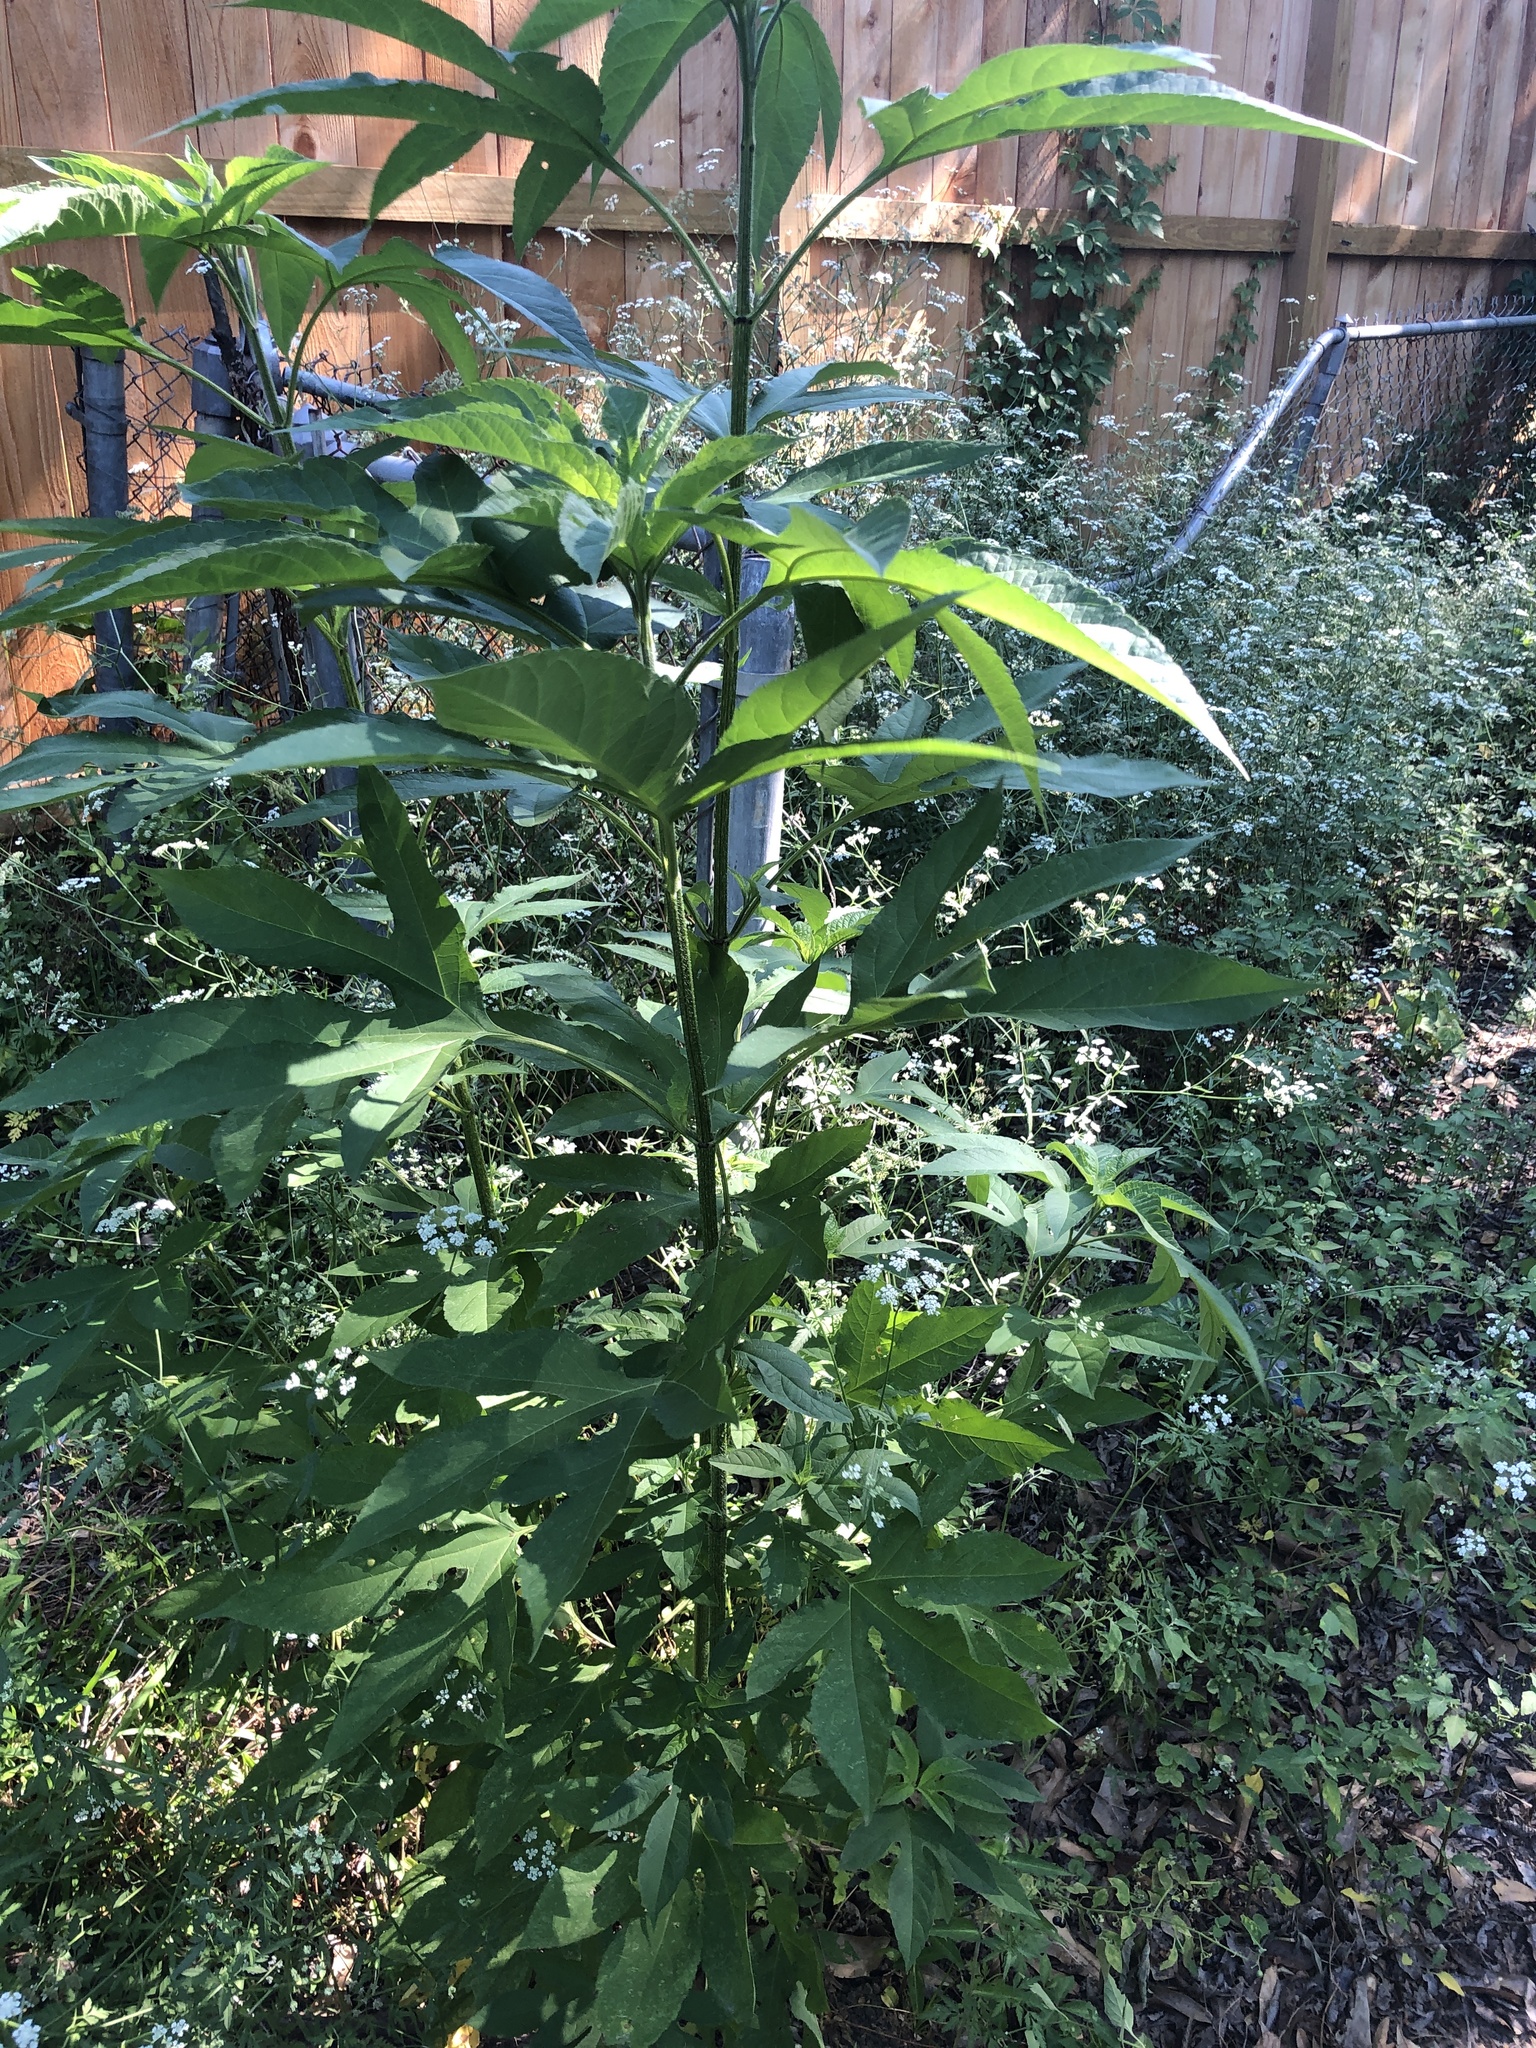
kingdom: Plantae
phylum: Tracheophyta
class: Magnoliopsida
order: Asterales
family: Asteraceae
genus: Ambrosia
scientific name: Ambrosia trifida
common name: Giant ragweed
